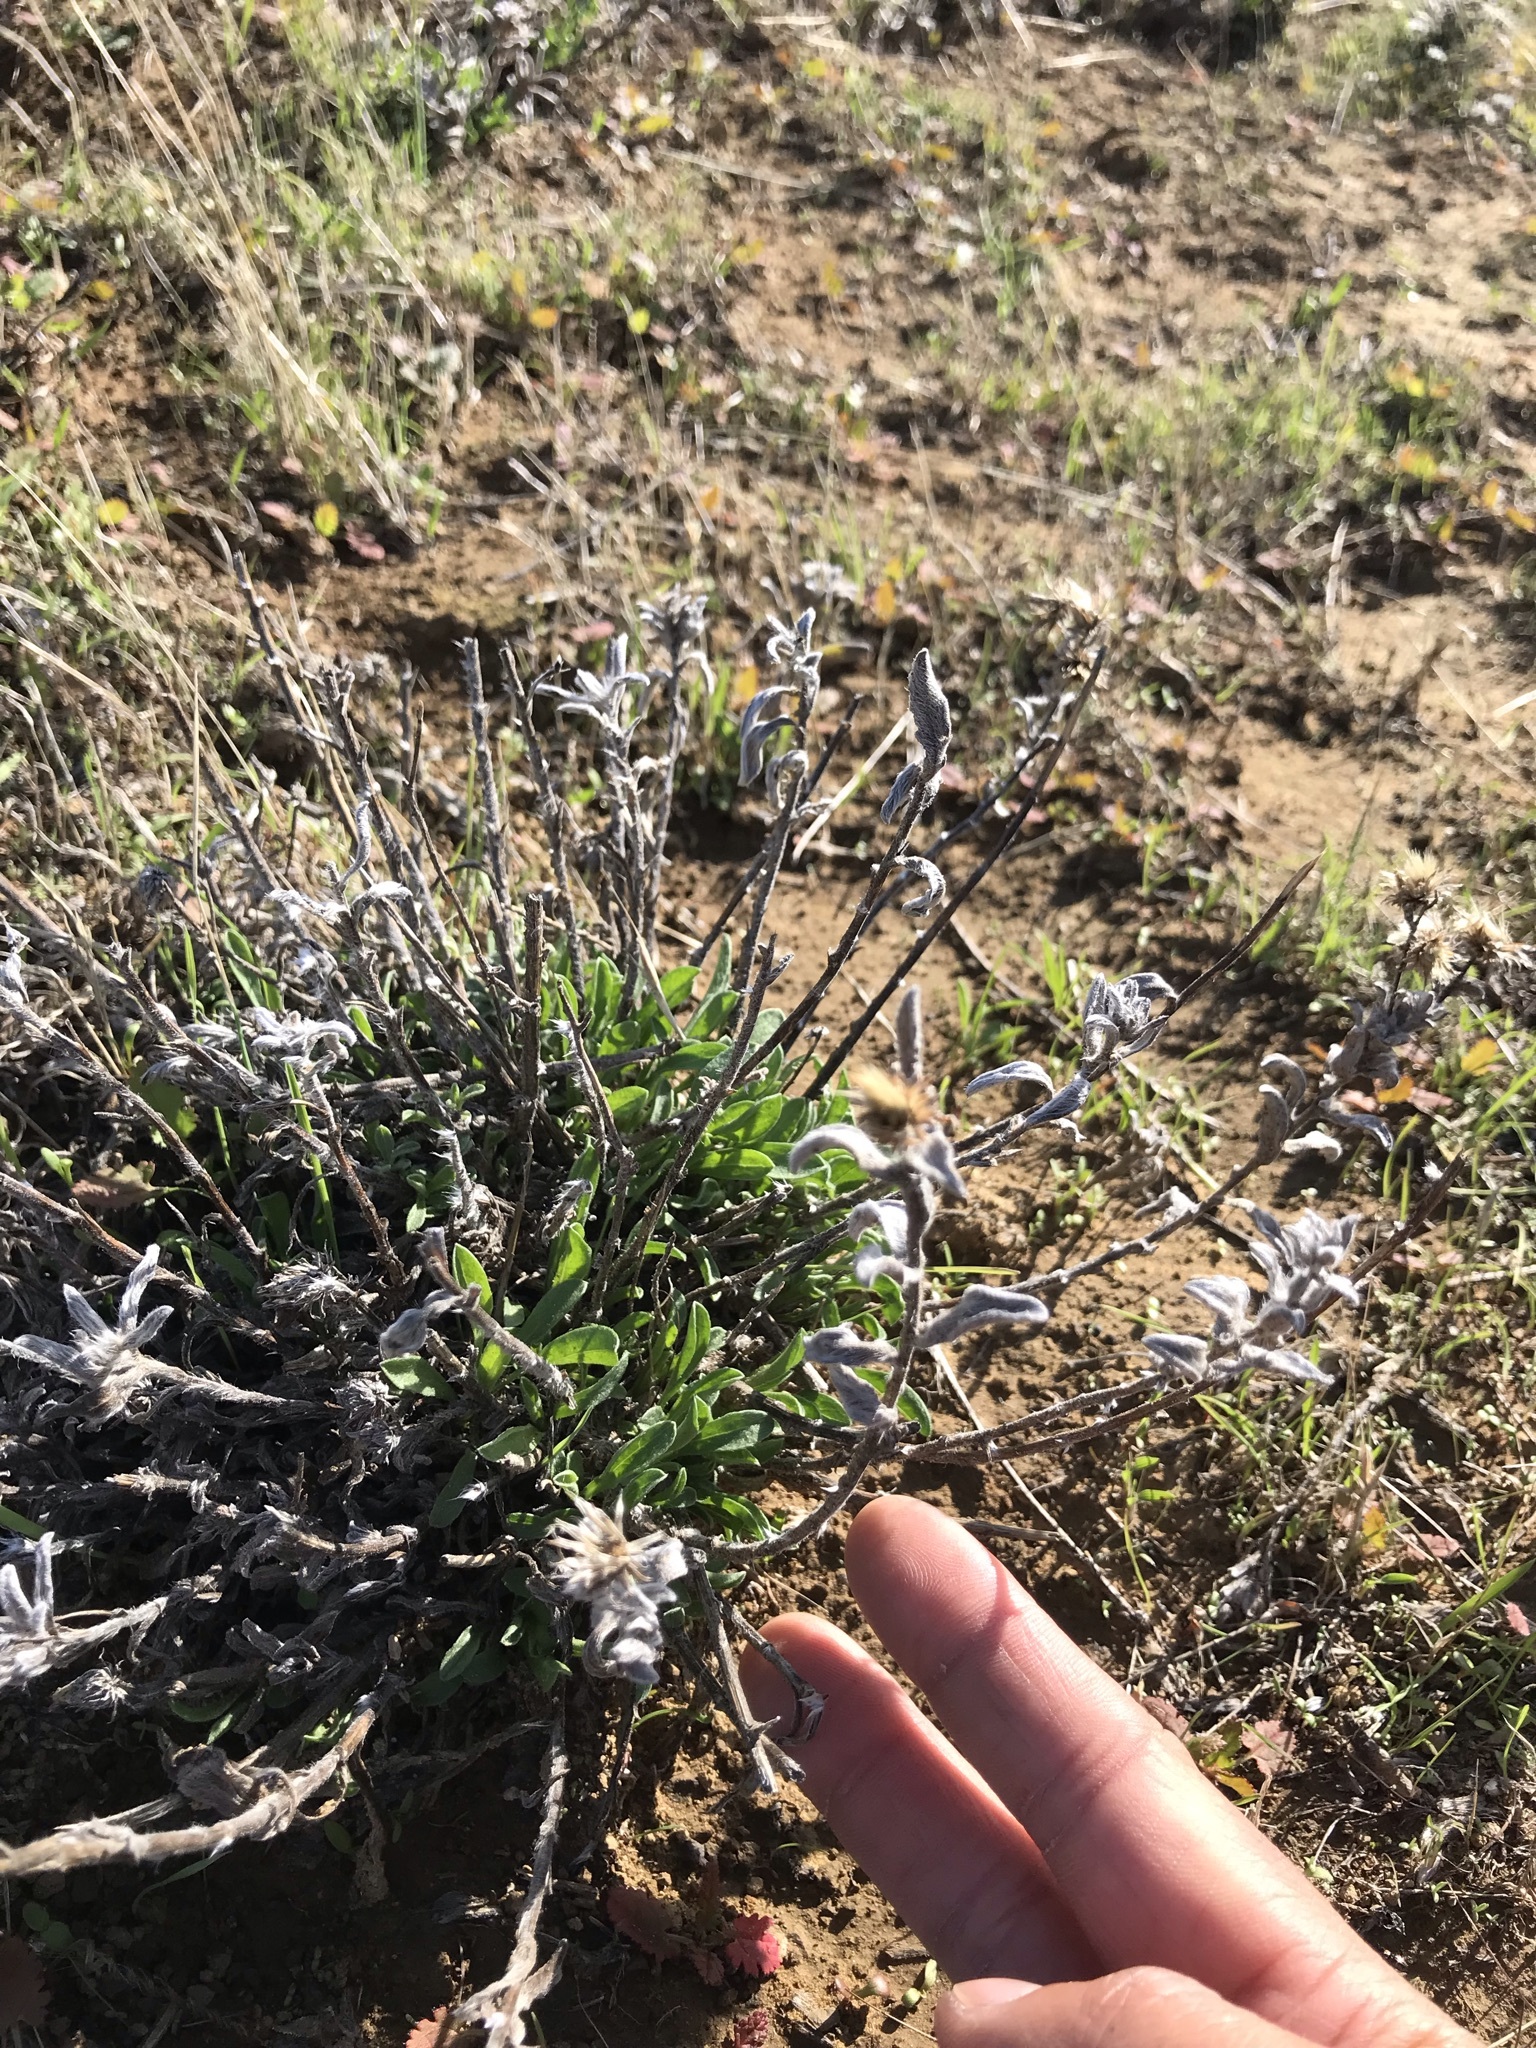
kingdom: Plantae
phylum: Tracheophyta
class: Magnoliopsida
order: Asterales
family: Asteraceae
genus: Heterotheca
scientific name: Heterotheca sessiliflora
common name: Sessile-flower golden-aster
